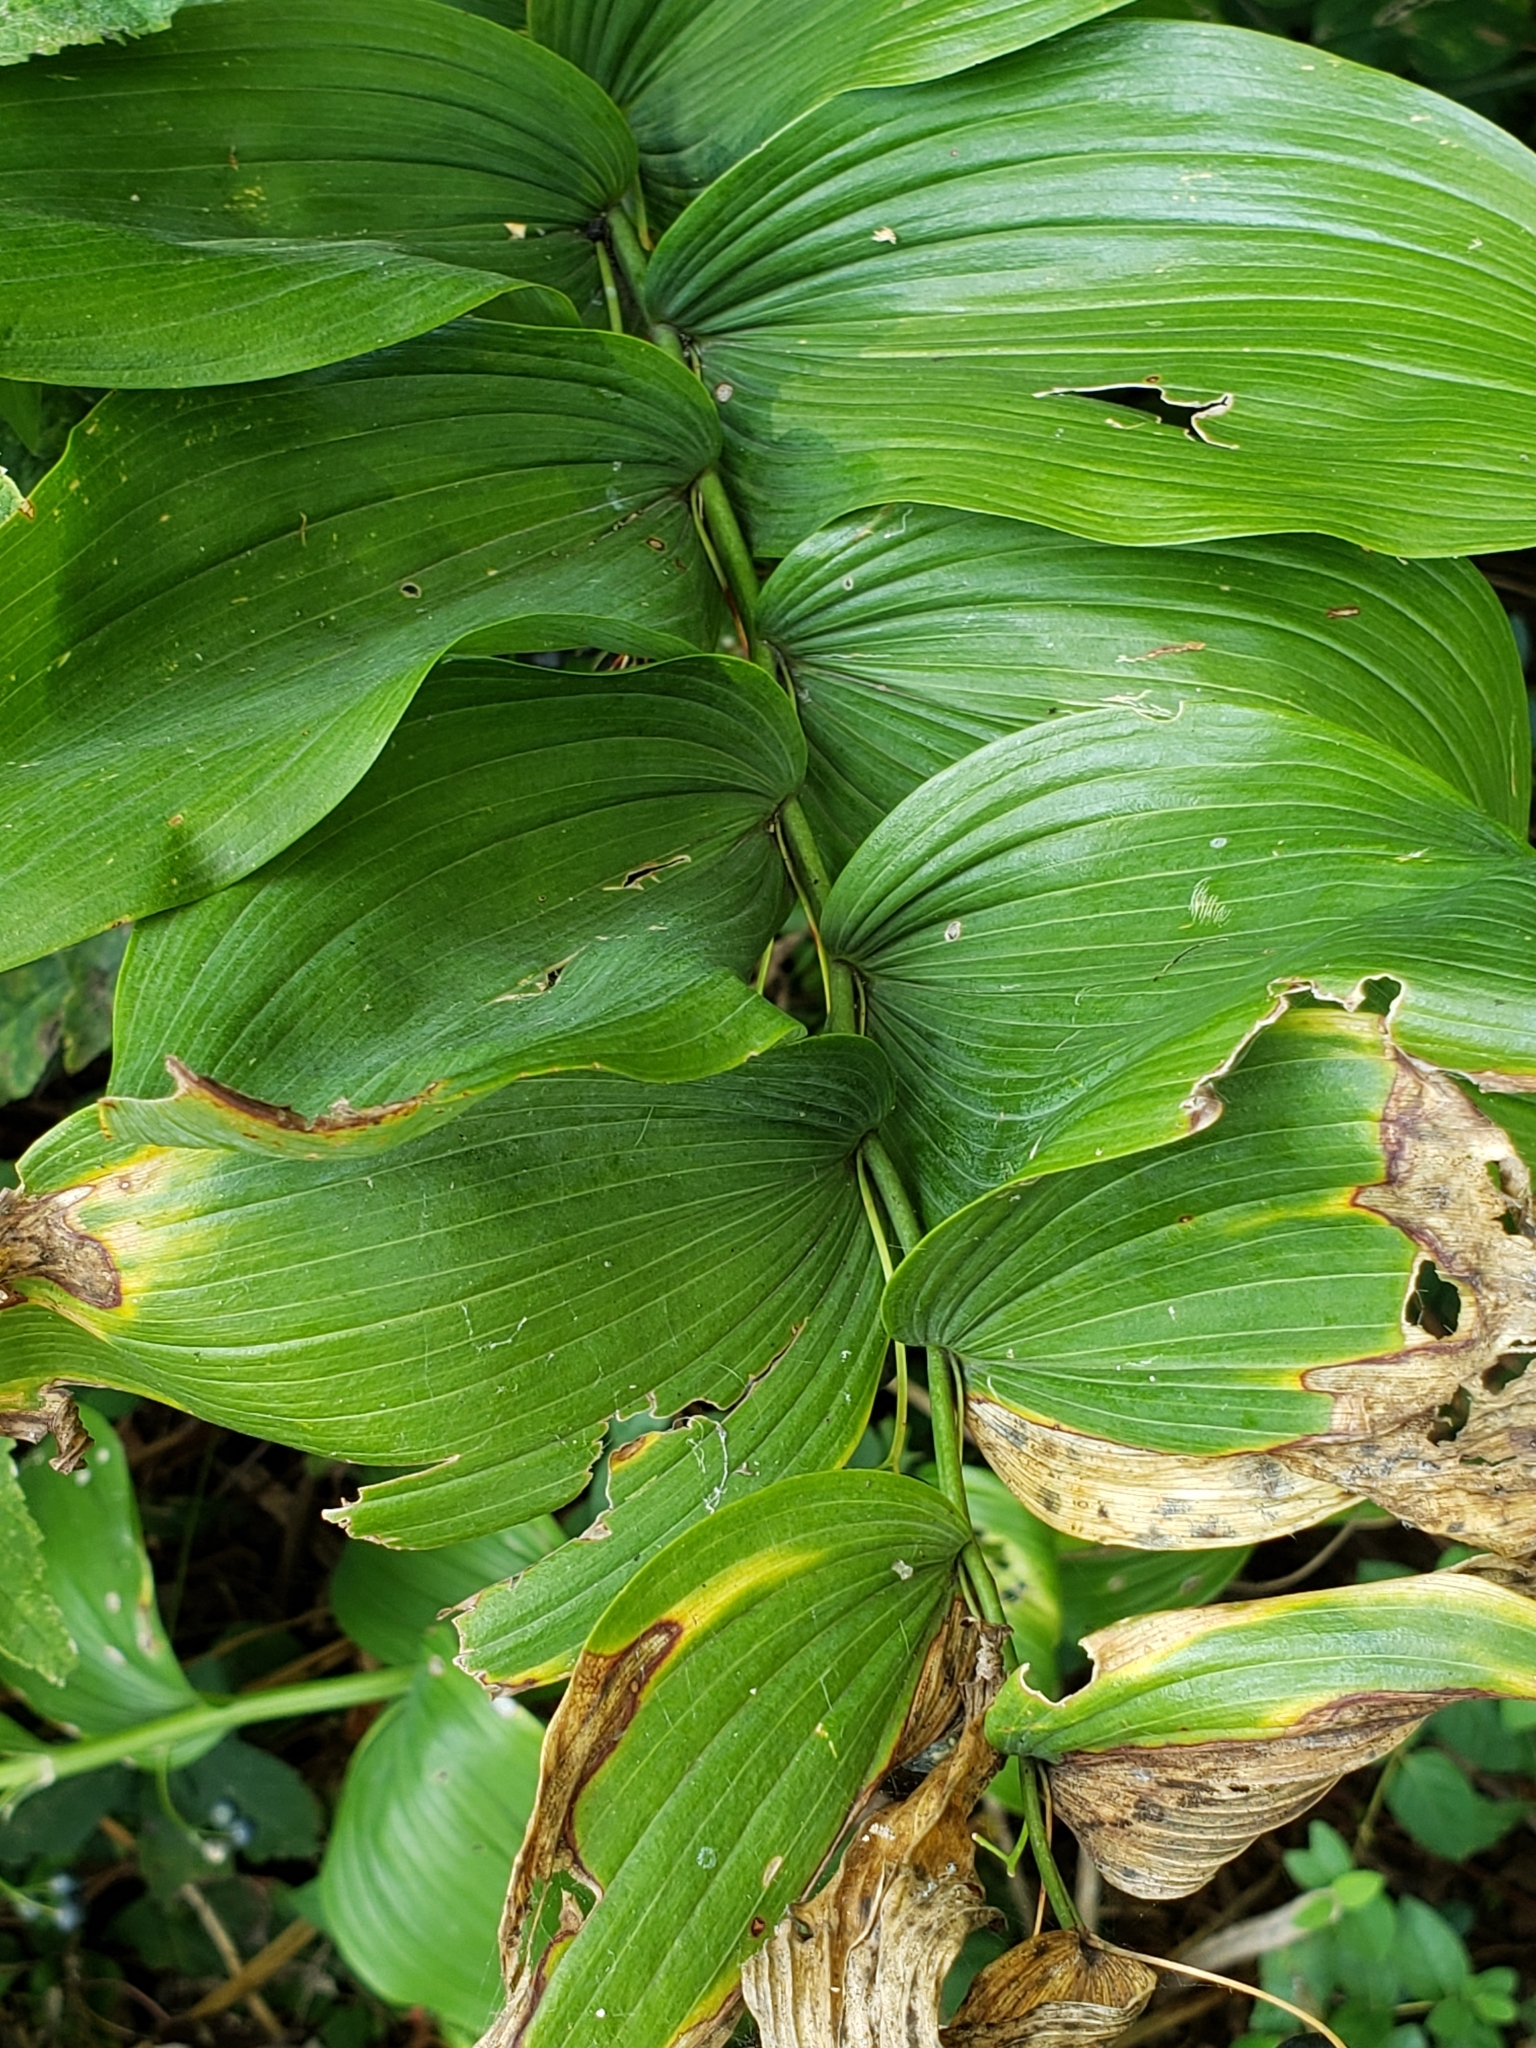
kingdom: Plantae
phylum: Tracheophyta
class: Liliopsida
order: Asparagales
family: Asparagaceae
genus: Polygonatum
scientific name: Polygonatum biflorum
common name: American solomon's-seal
